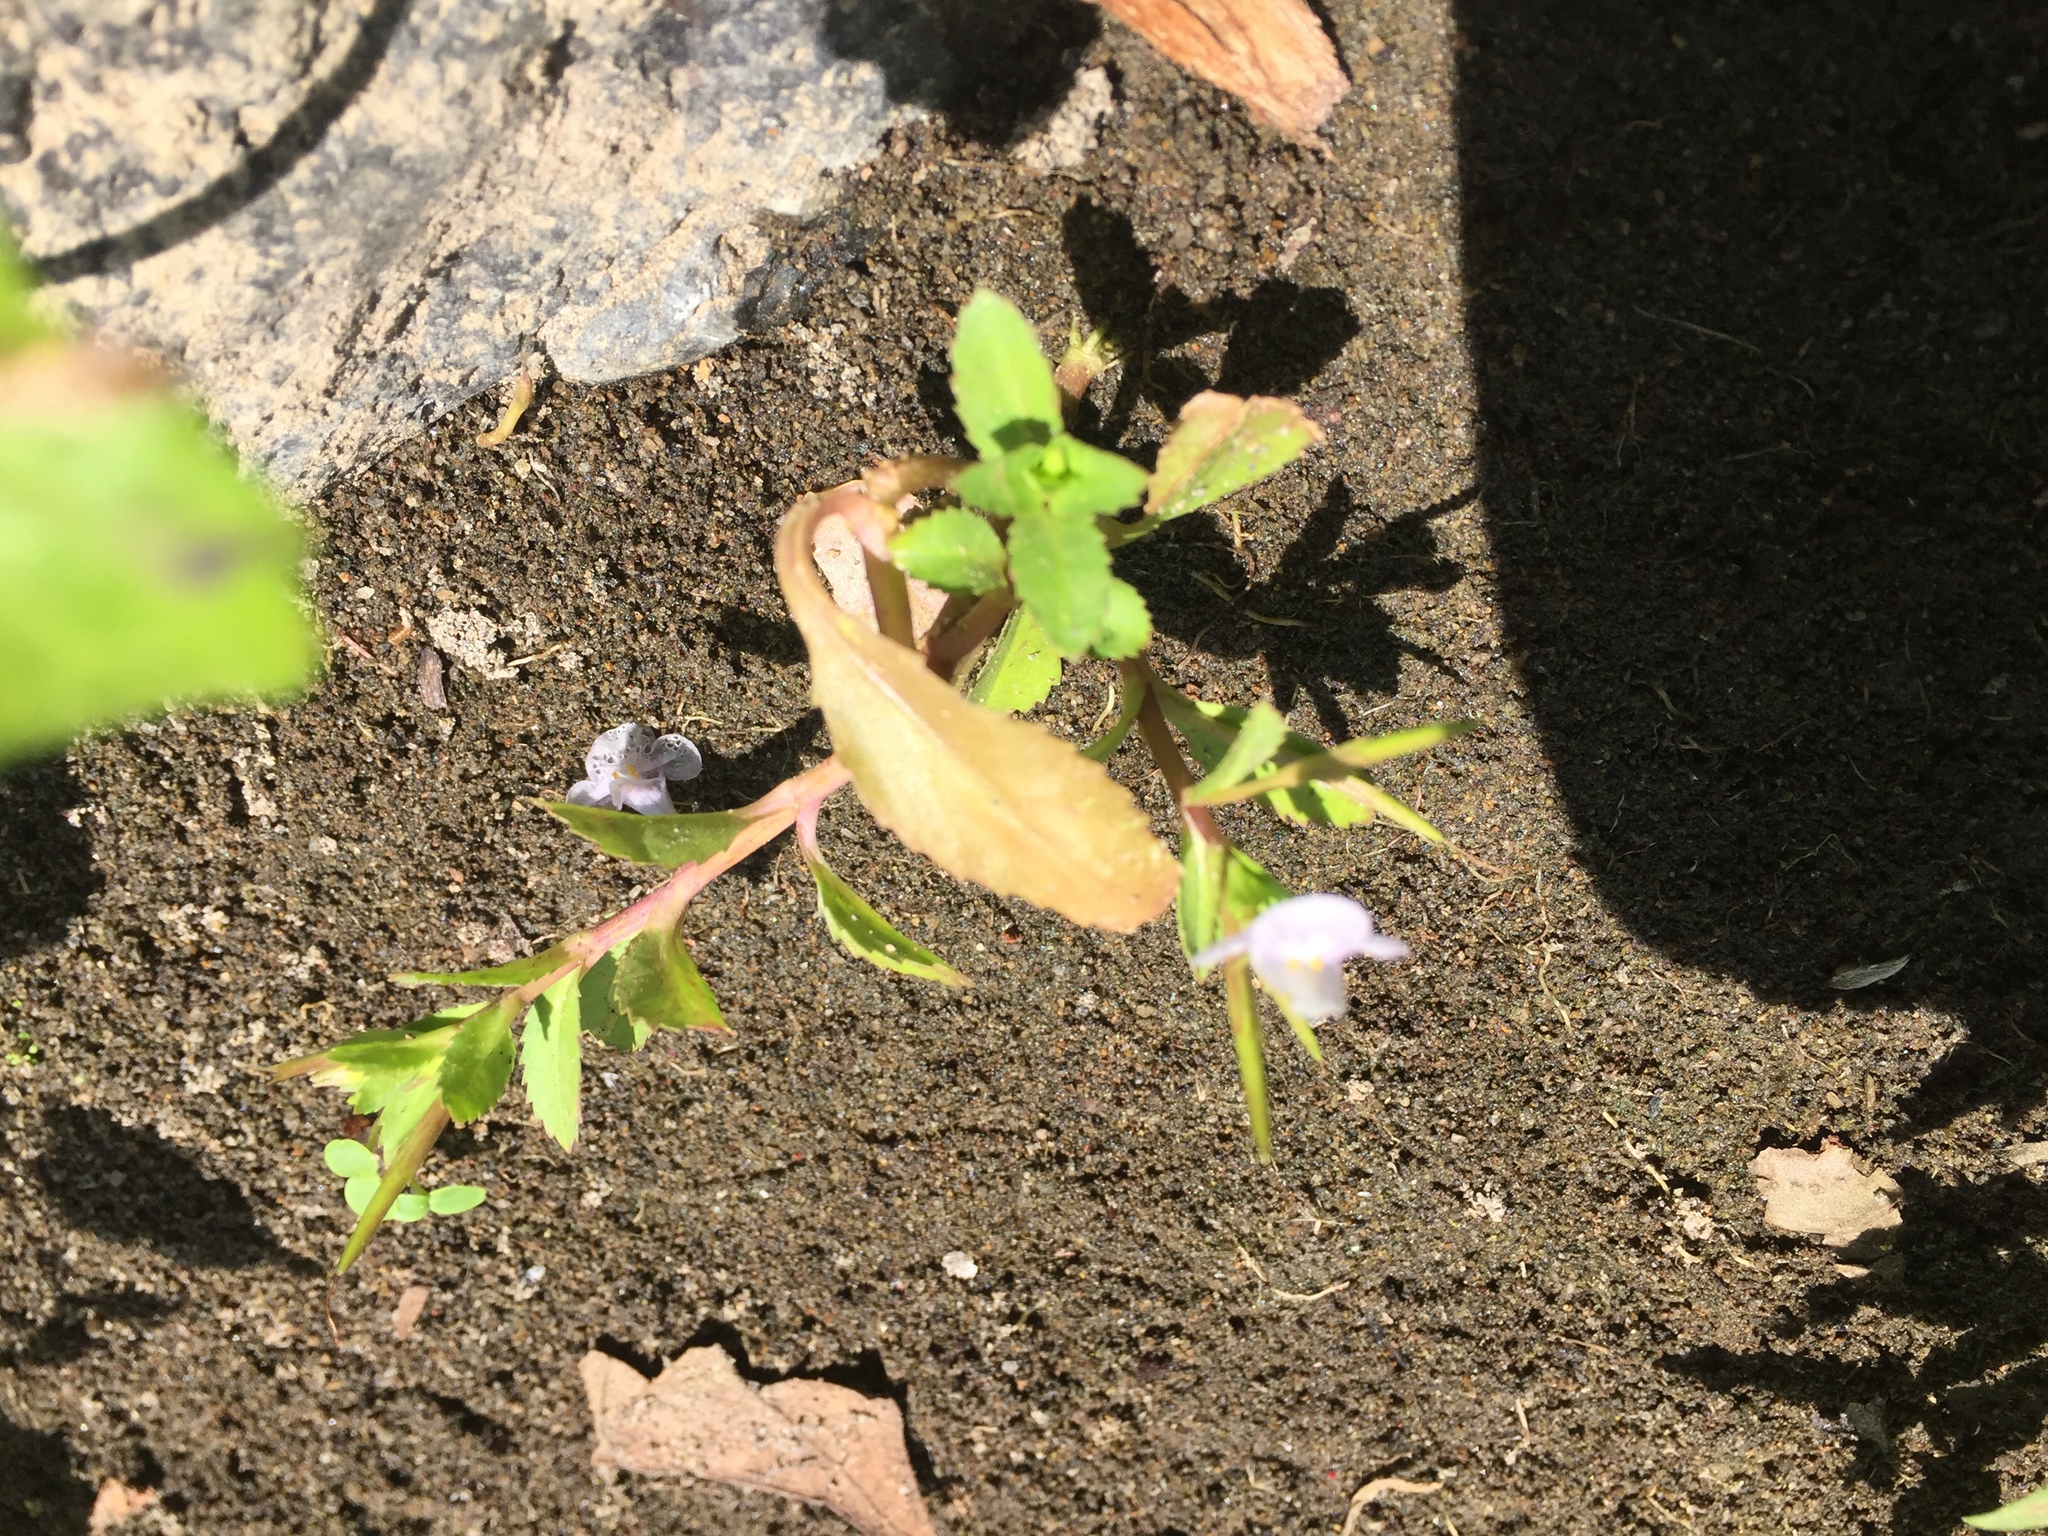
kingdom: Plantae
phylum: Tracheophyta
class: Magnoliopsida
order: Lamiales
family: Linderniaceae
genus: Bonnaya
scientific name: Bonnaya antipoda
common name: Sparrow false pimpernel
